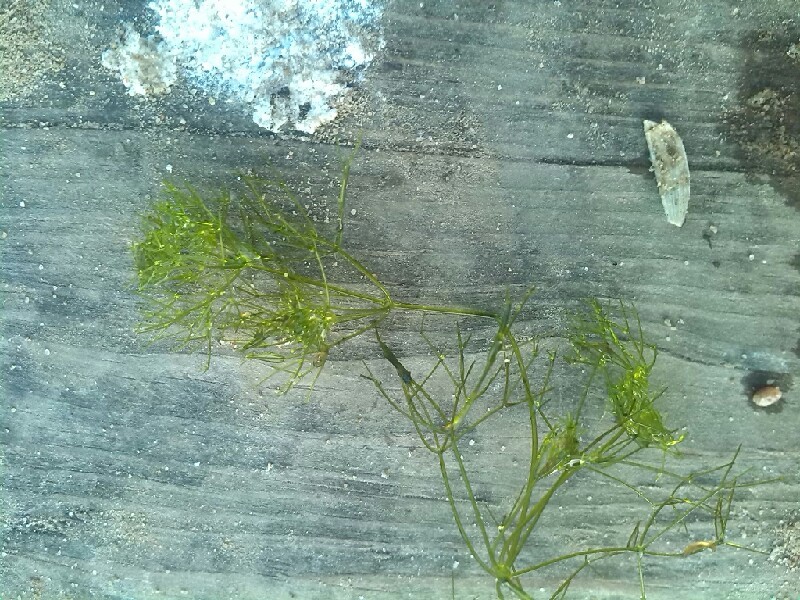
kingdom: Plantae
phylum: Charophyta
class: Charophyceae
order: Charales
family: Characeae
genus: Nitella
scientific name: Nitella mucronata
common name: Compact stonewort
